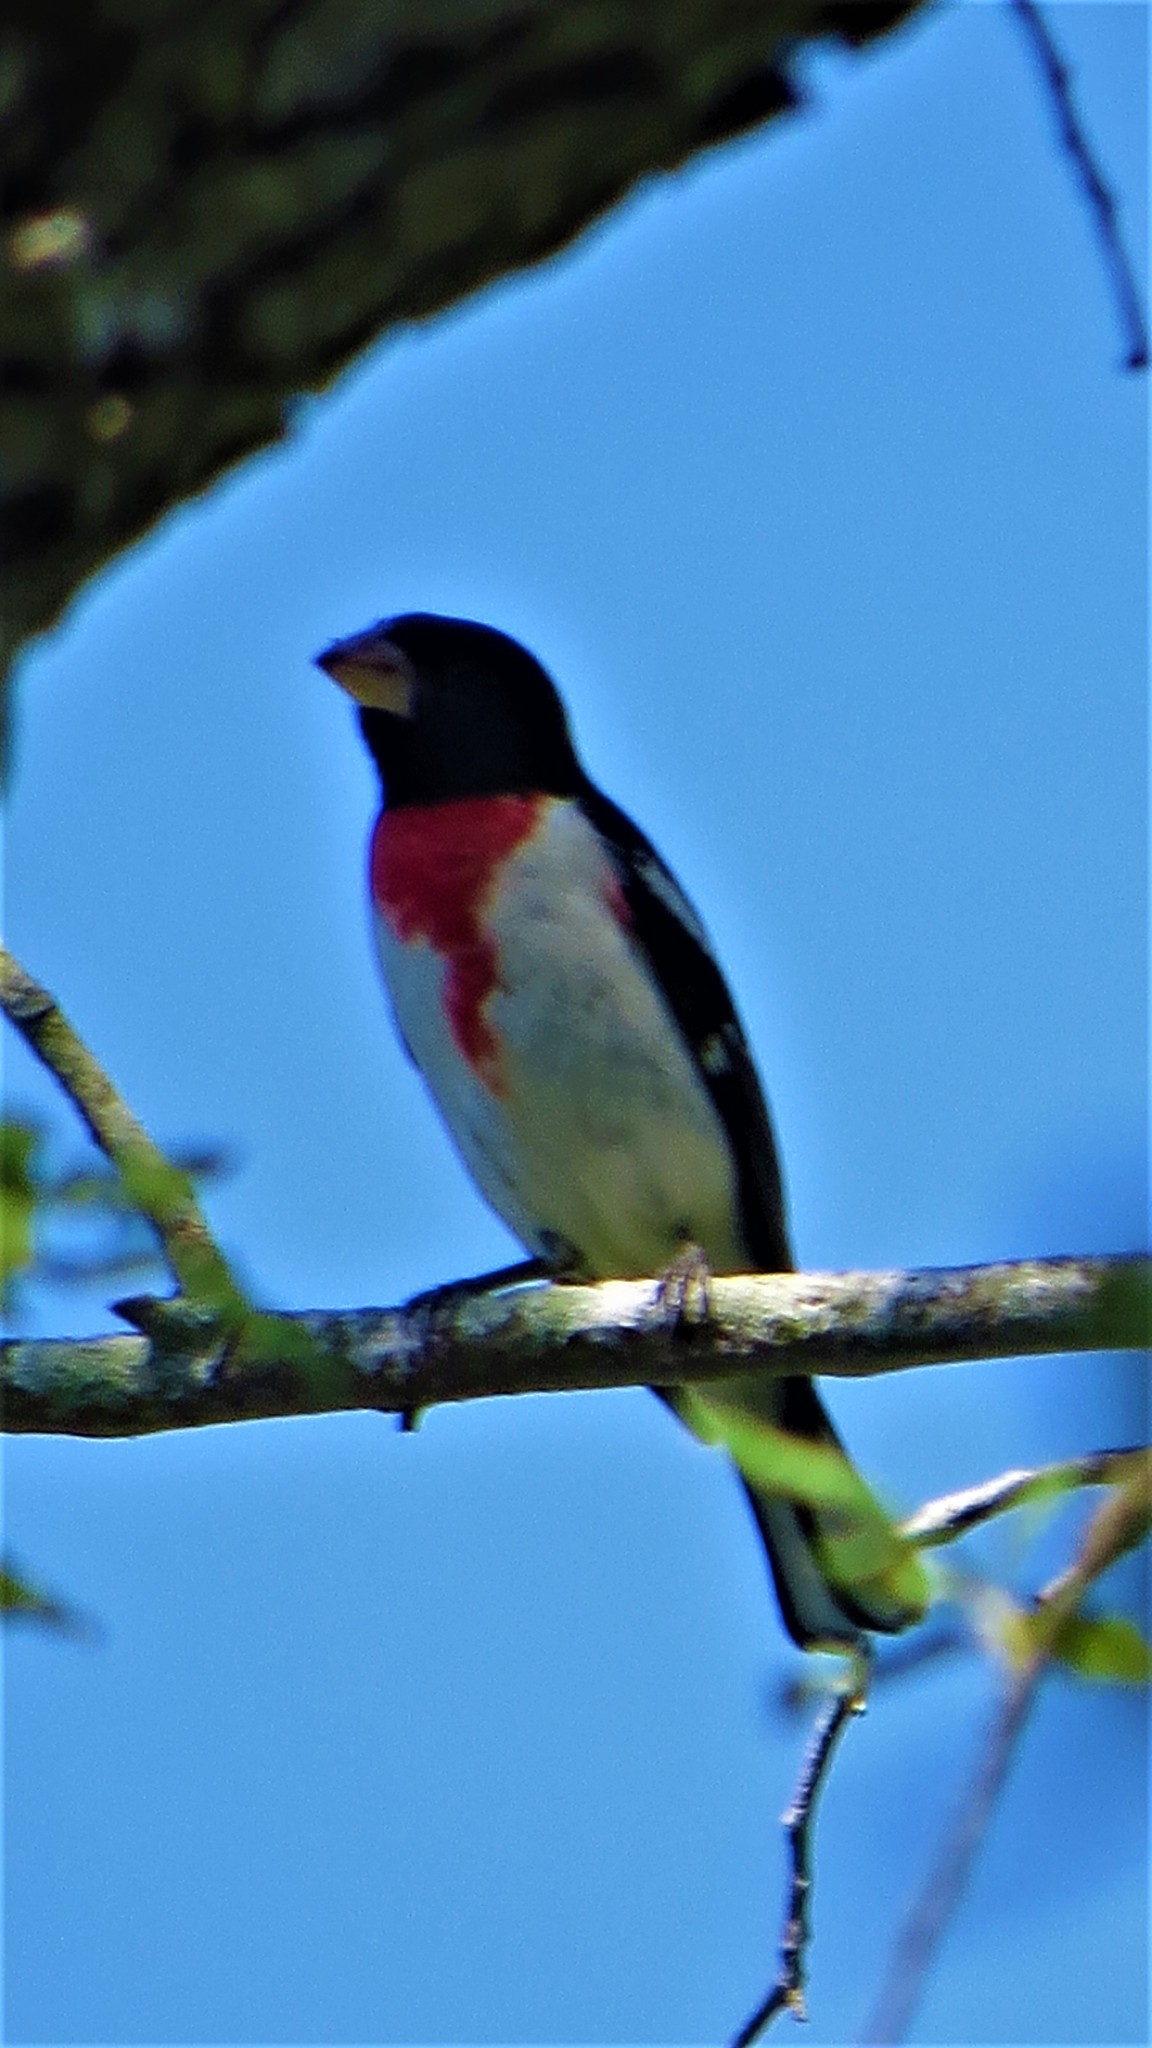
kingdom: Animalia
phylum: Chordata
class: Aves
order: Passeriformes
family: Cardinalidae
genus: Pheucticus
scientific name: Pheucticus ludovicianus
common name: Rose-breasted grosbeak
